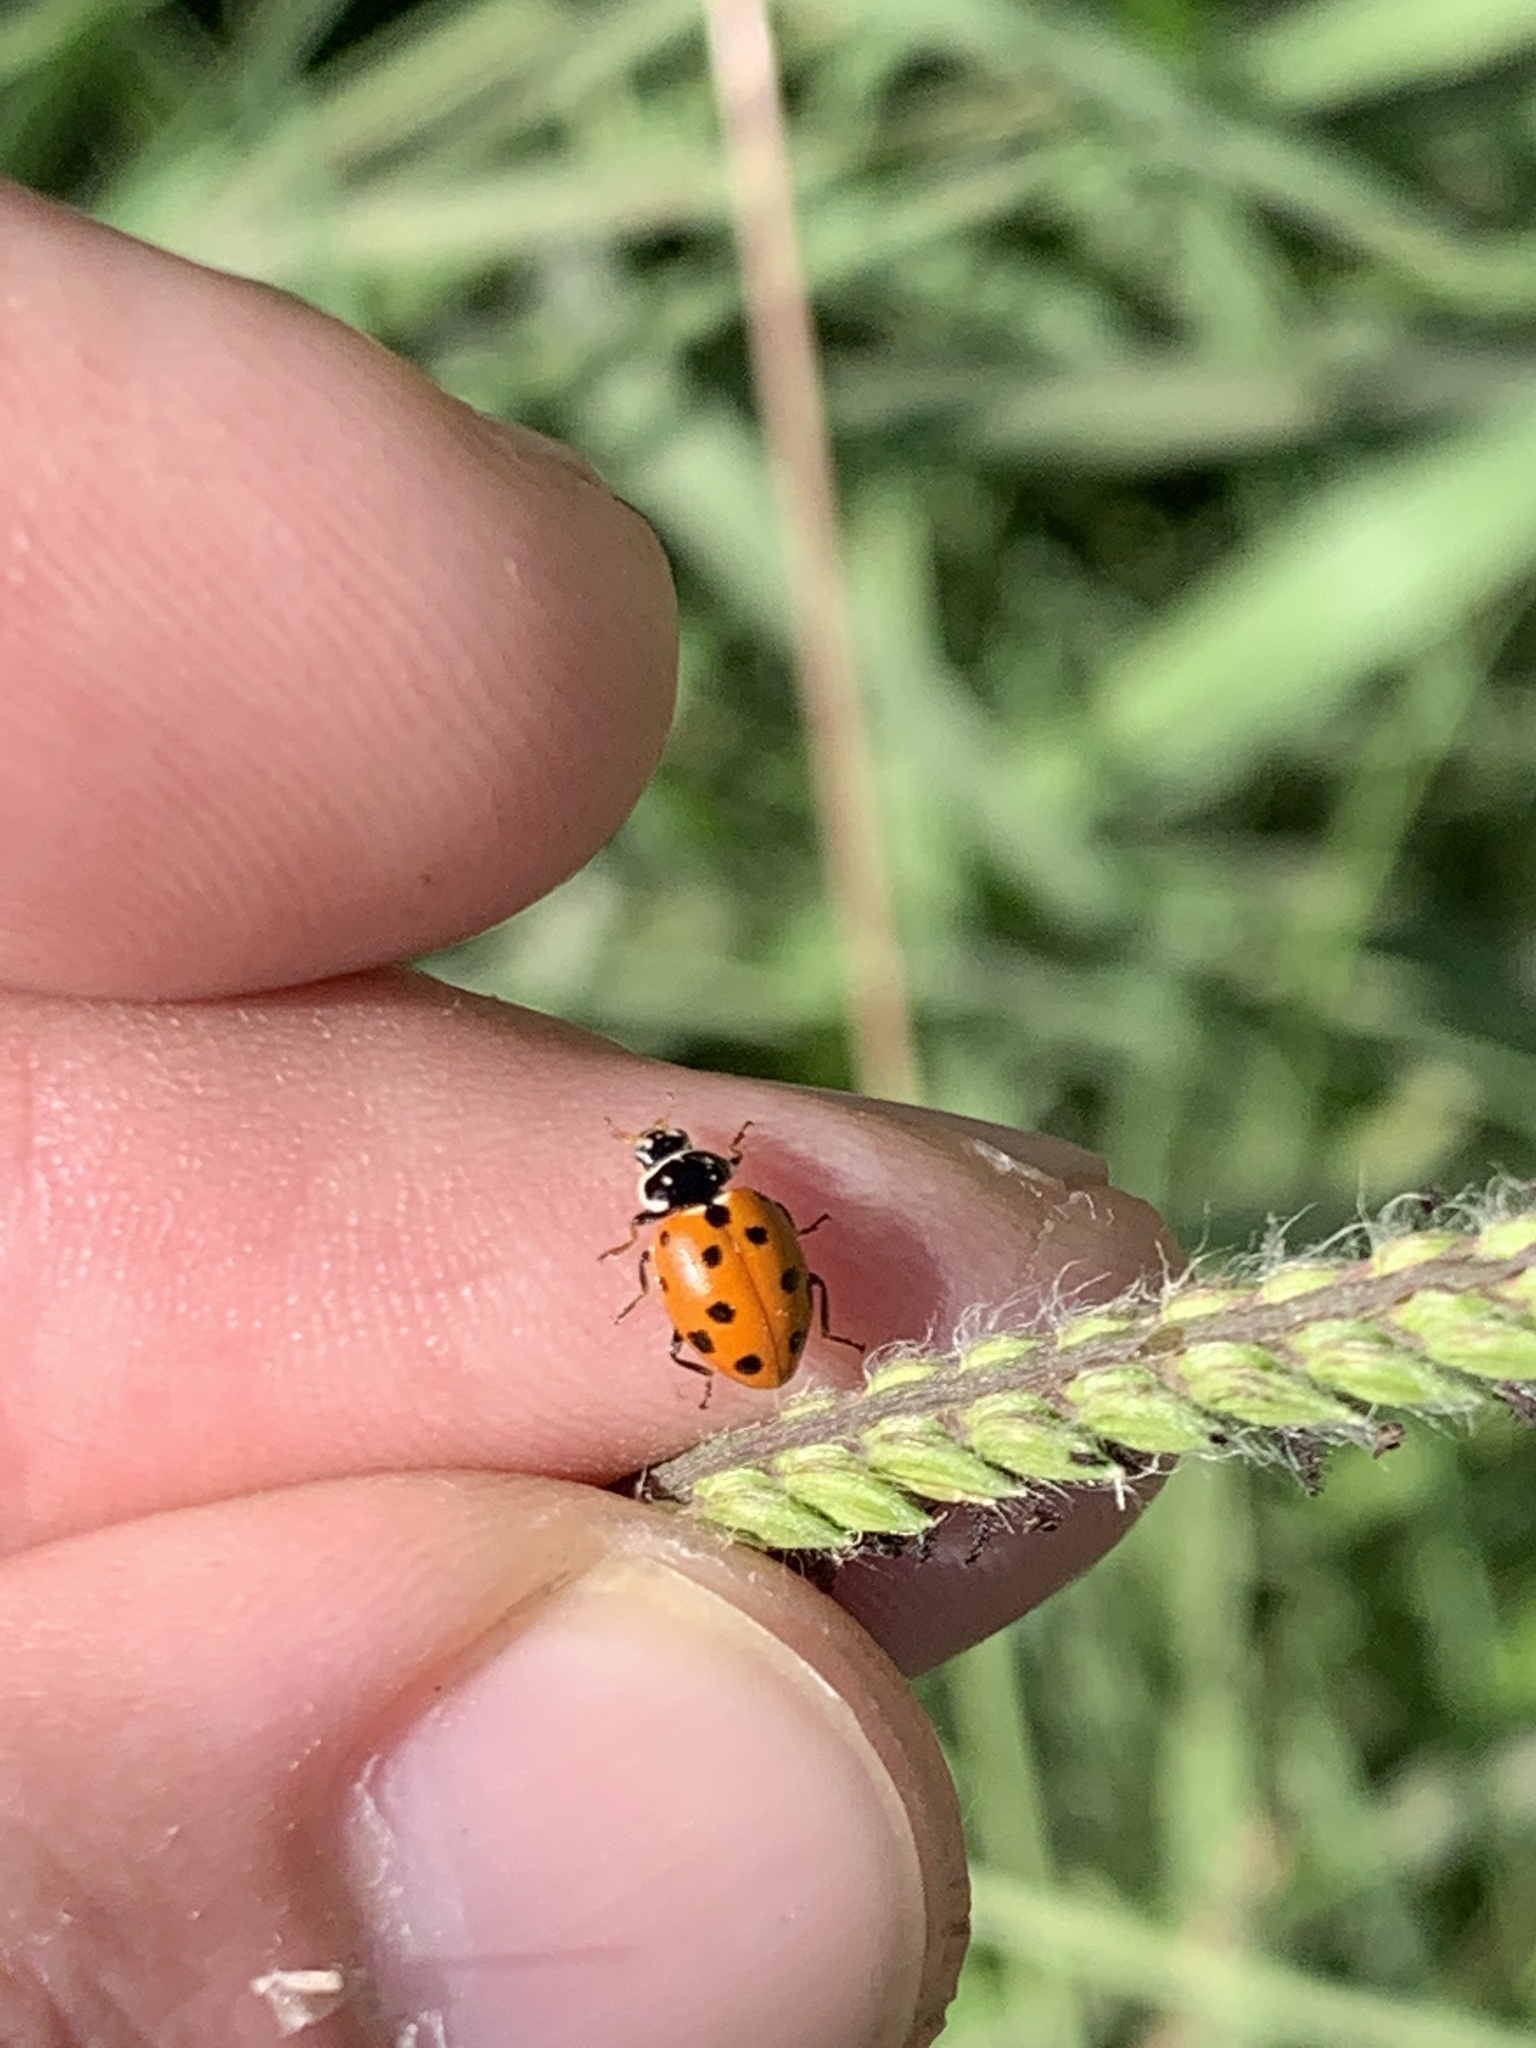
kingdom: Animalia
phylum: Arthropoda
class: Insecta
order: Coleoptera
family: Coccinellidae
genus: Hippodamia
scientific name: Hippodamia variegata
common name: Ladybird beetle
